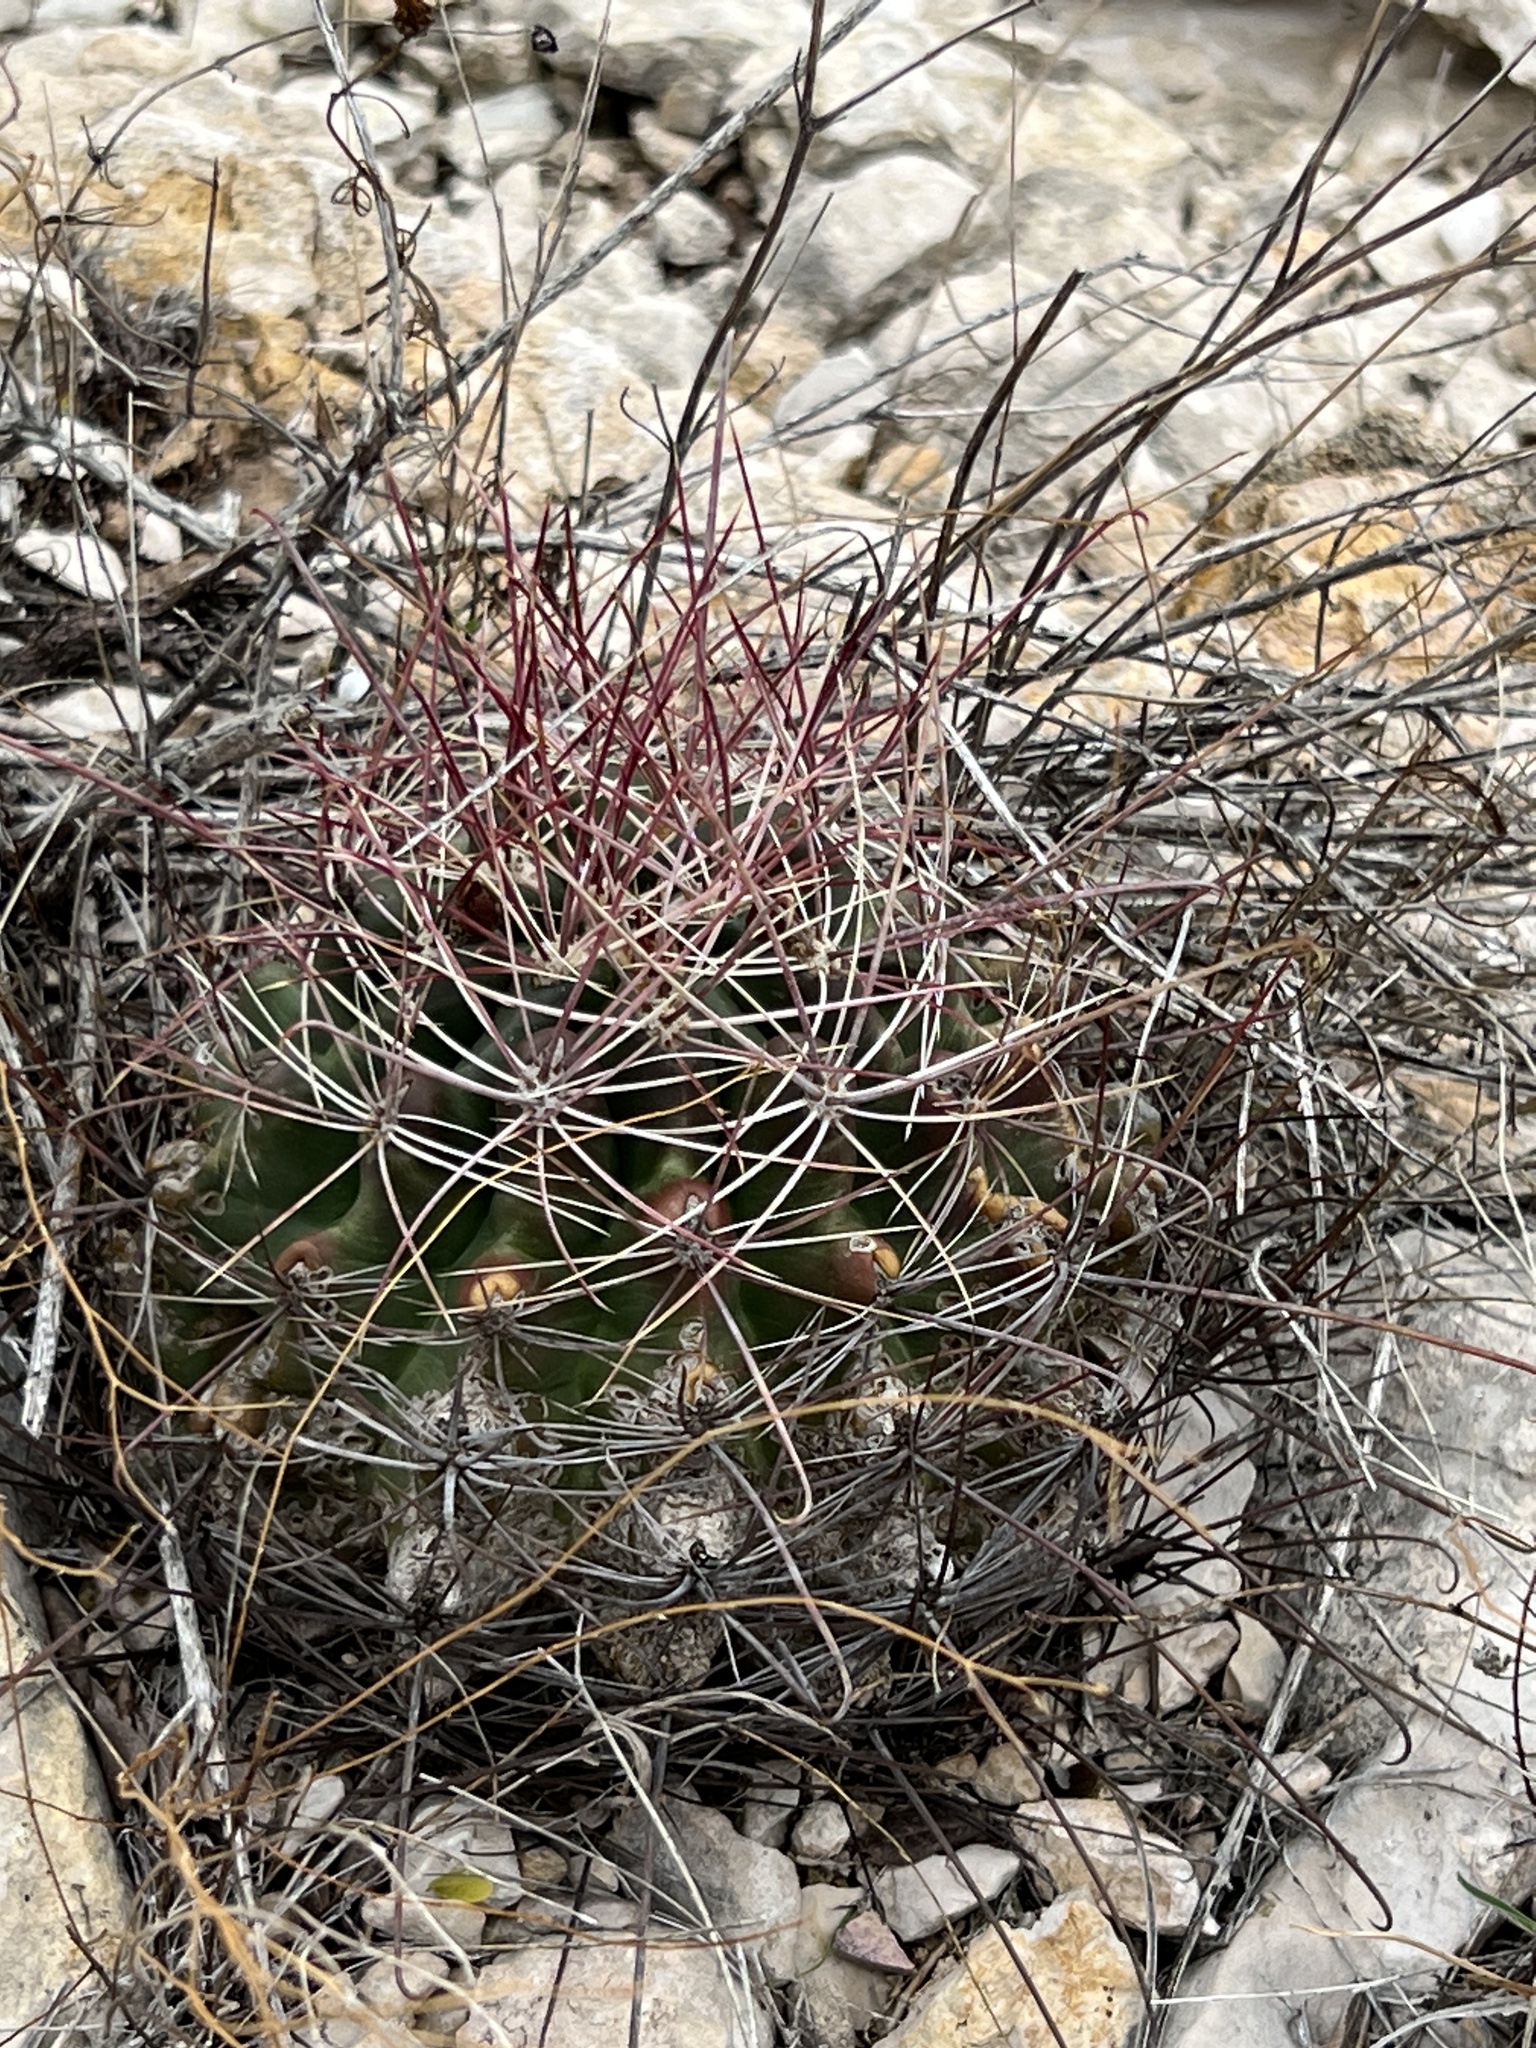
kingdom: Plantae
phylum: Tracheophyta
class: Magnoliopsida
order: Caryophyllales
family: Cactaceae
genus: Bisnaga
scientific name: Bisnaga hamatacantha
